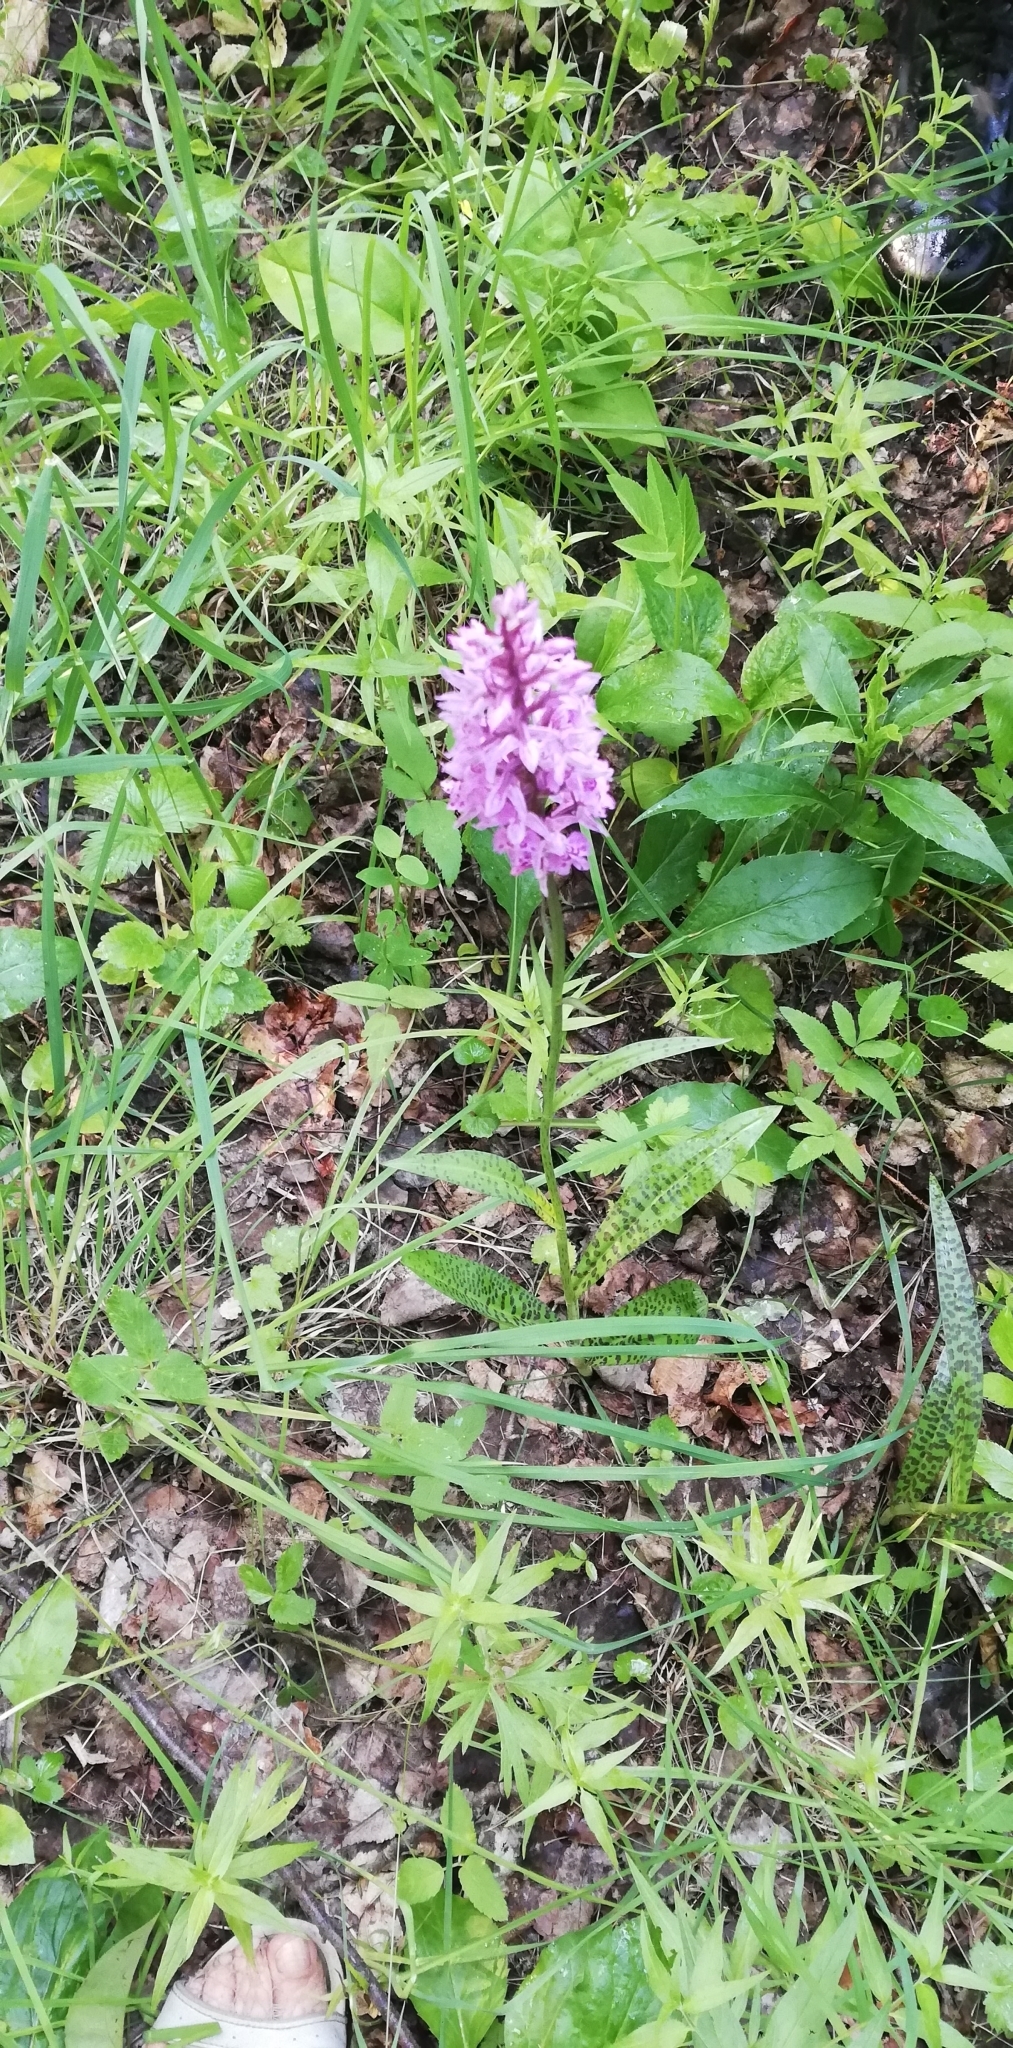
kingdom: Plantae
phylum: Tracheophyta
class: Liliopsida
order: Asparagales
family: Orchidaceae
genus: Dactylorhiza
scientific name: Dactylorhiza maculata
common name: Heath spotted-orchid
